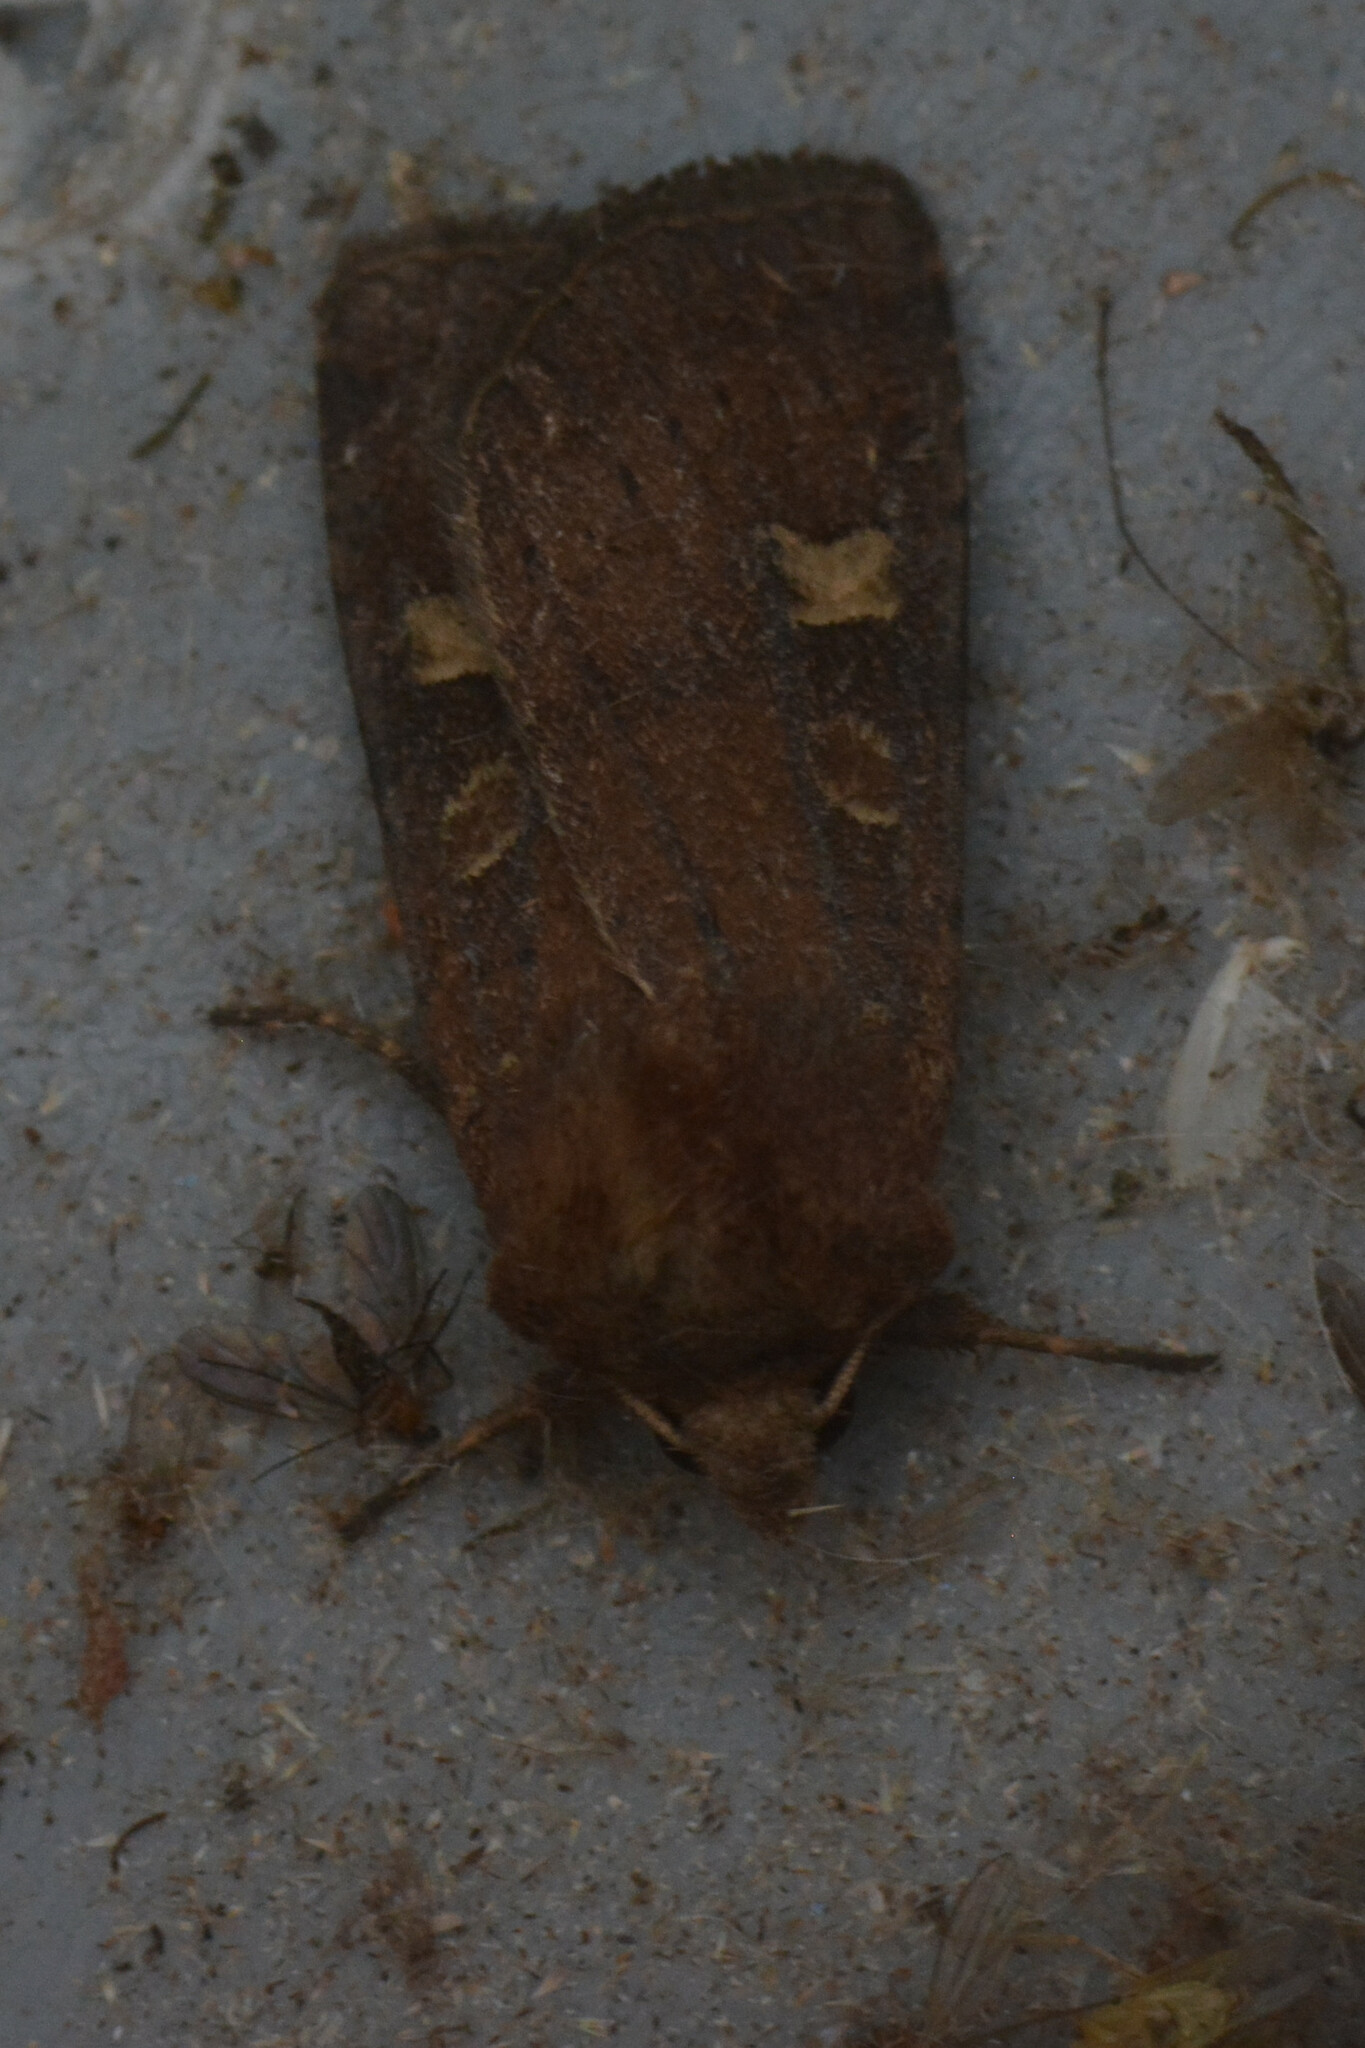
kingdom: Animalia
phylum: Arthropoda
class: Insecta
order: Lepidoptera
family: Noctuidae
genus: Xestia
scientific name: Xestia xanthographa
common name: Square-spot rustic
